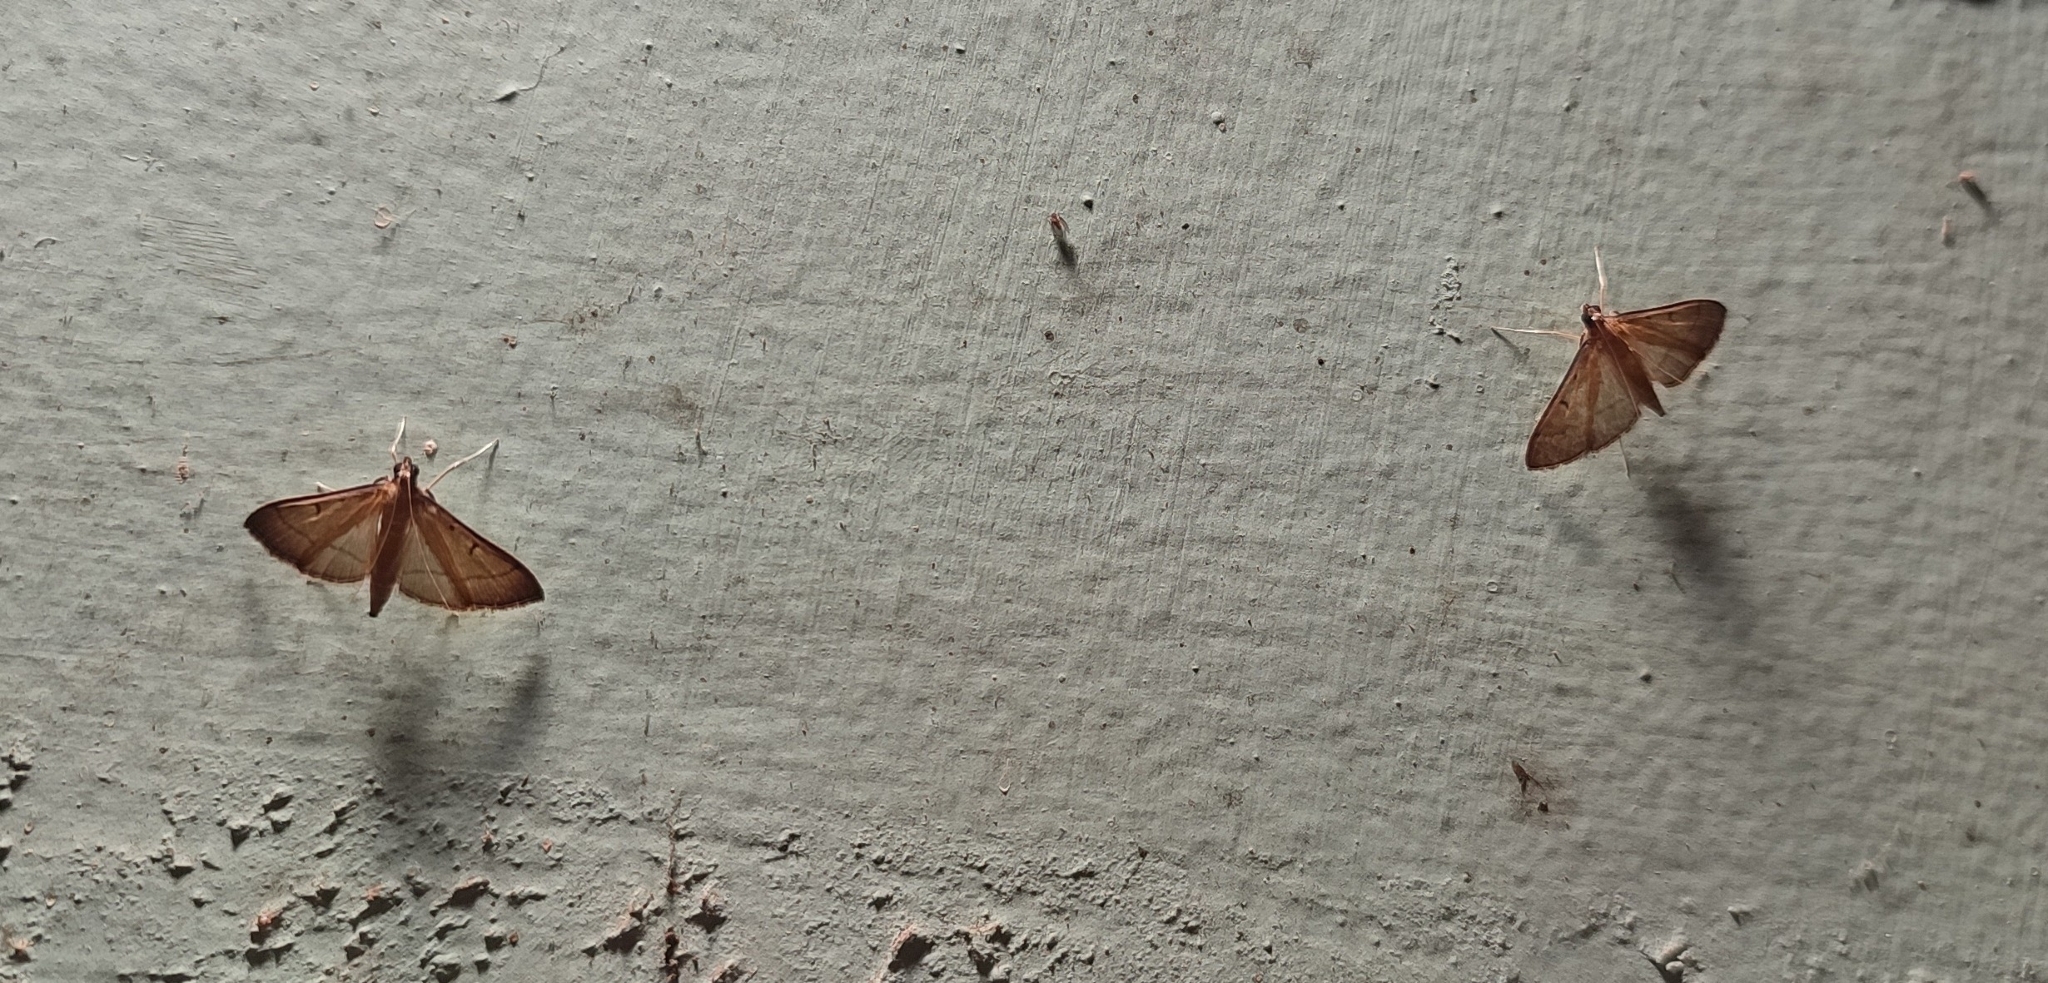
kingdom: Animalia
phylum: Arthropoda
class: Insecta
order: Lepidoptera
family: Crambidae
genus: Bradina
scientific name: Bradina admixtalis
